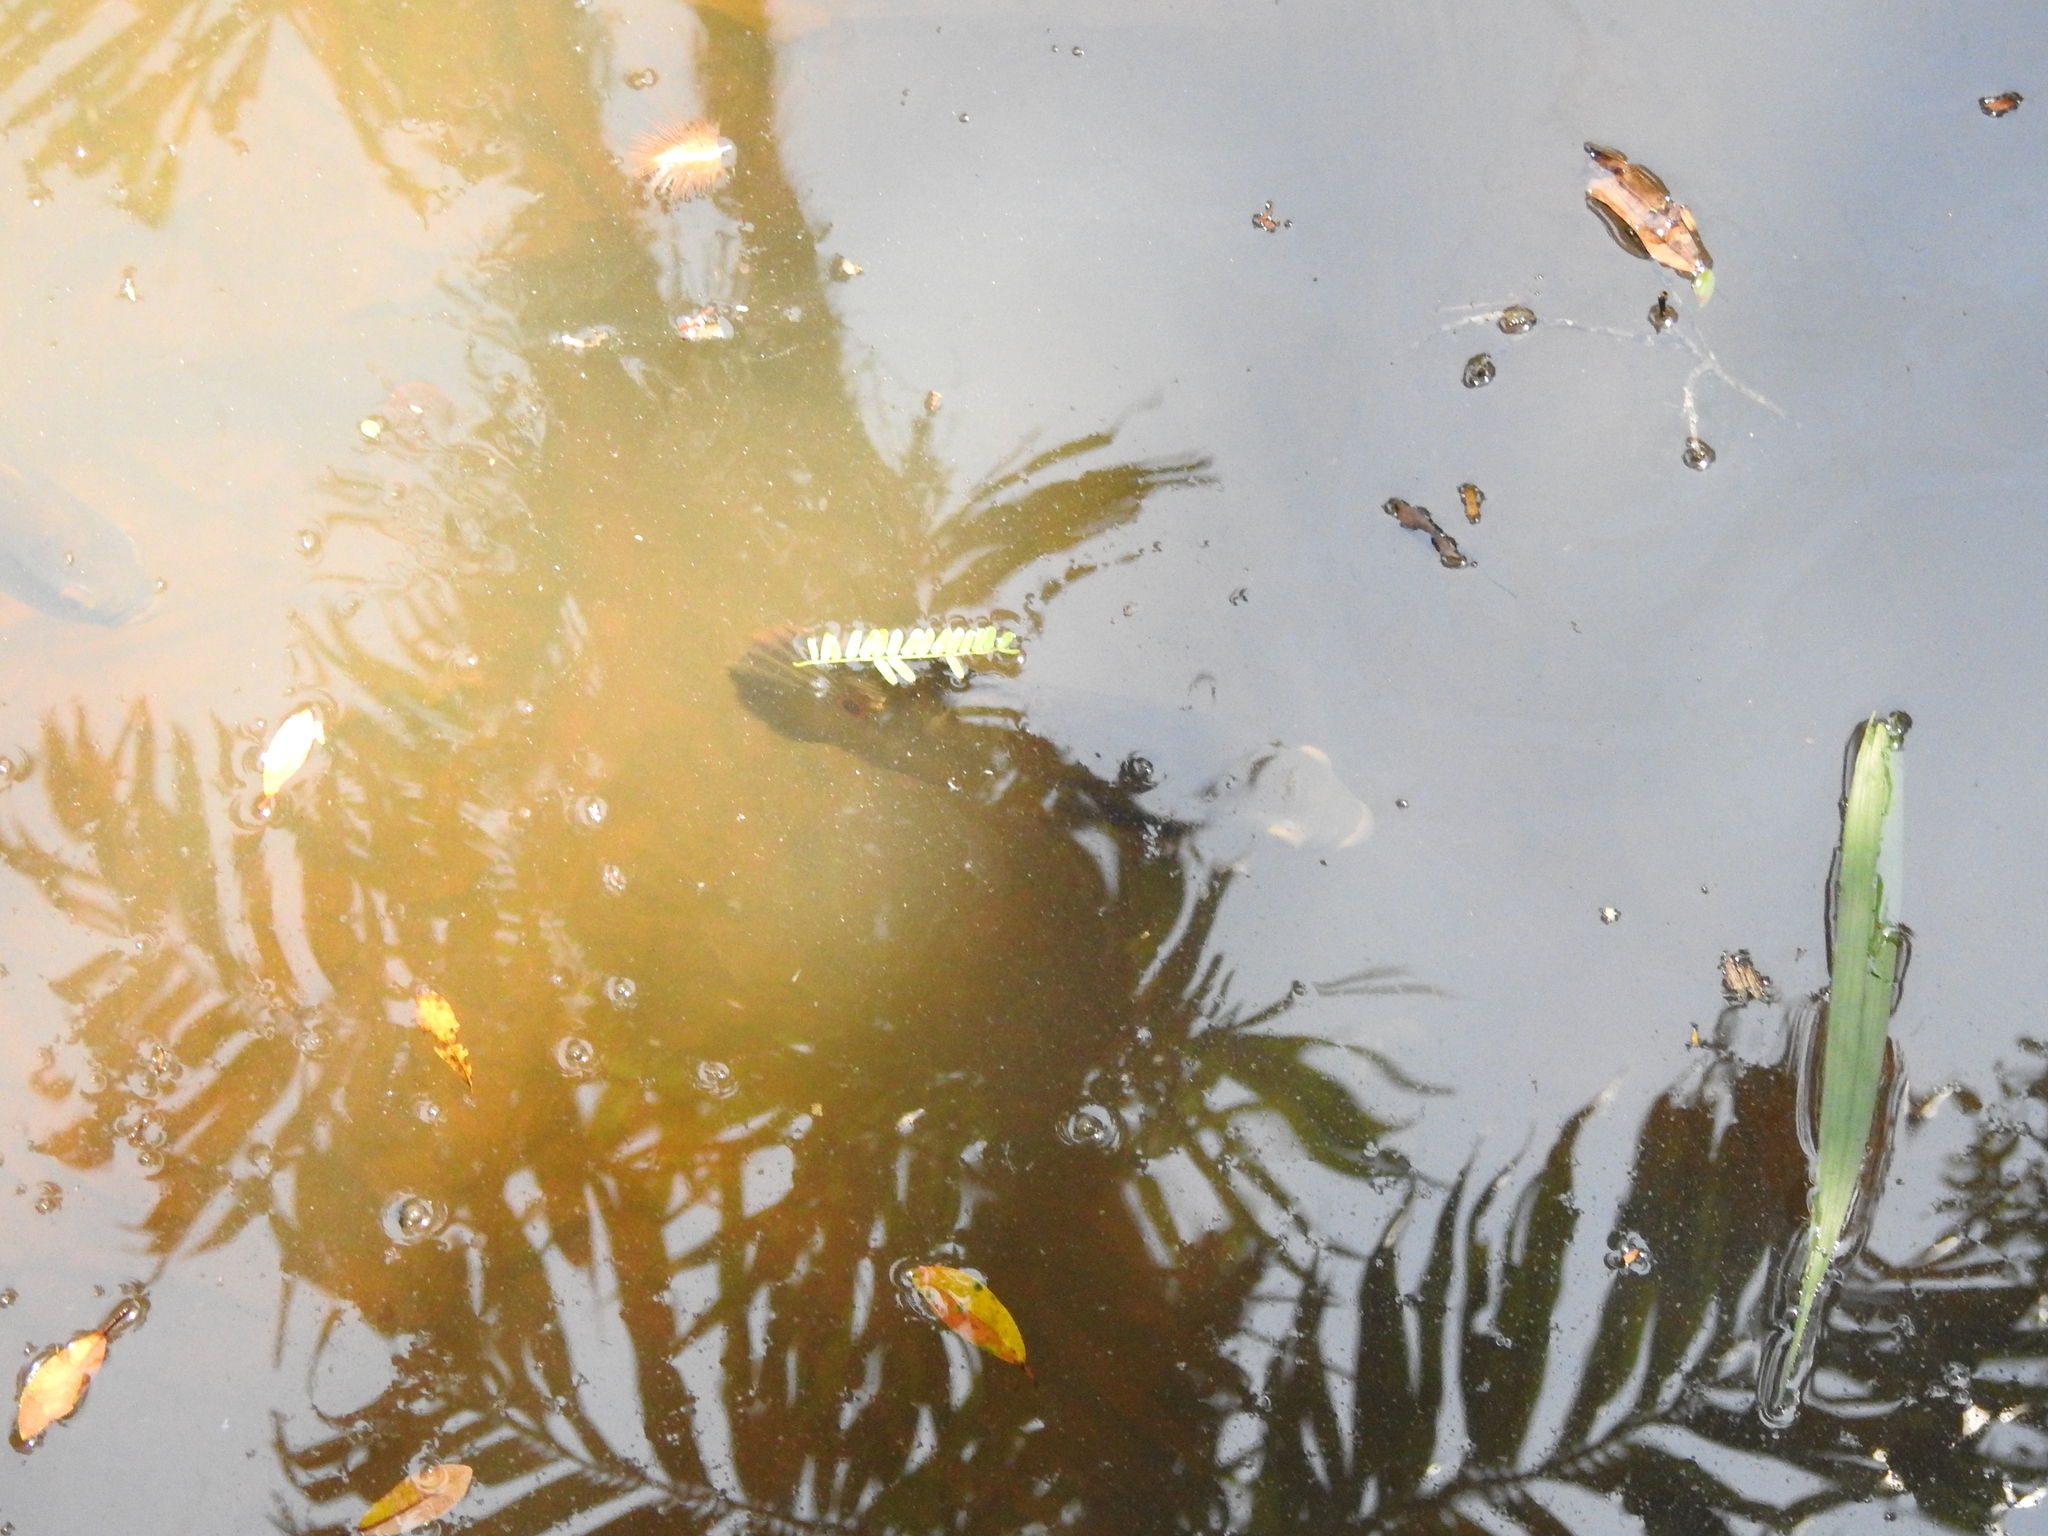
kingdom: Animalia
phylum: Chordata
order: Perciformes
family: Cichlidae
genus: Astronotus
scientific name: Astronotus ocellatus
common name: Oscar
